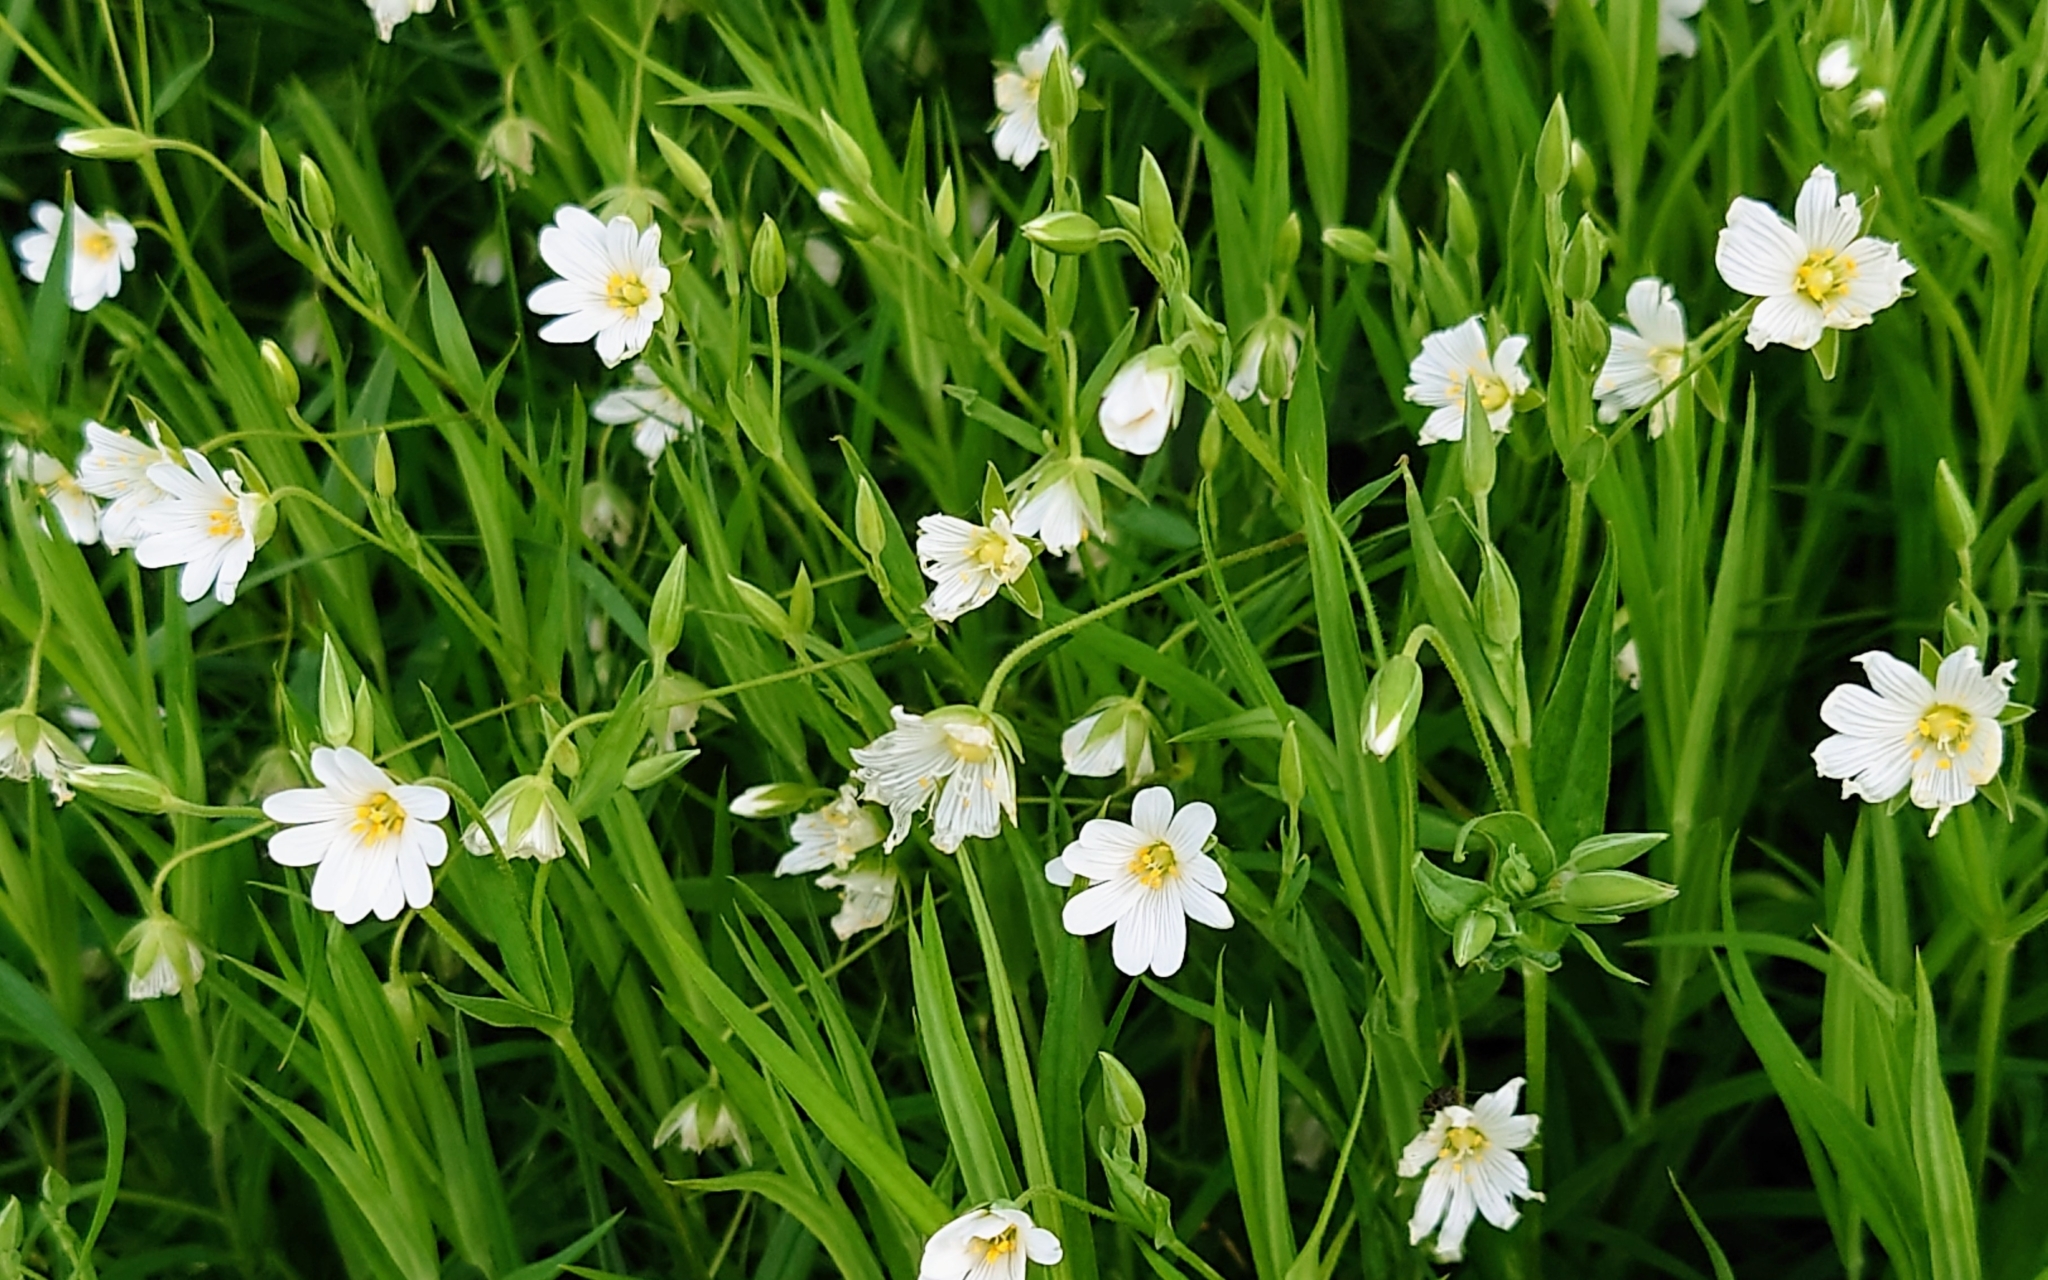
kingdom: Plantae
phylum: Tracheophyta
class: Magnoliopsida
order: Caryophyllales
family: Caryophyllaceae
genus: Rabelera
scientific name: Rabelera holostea
